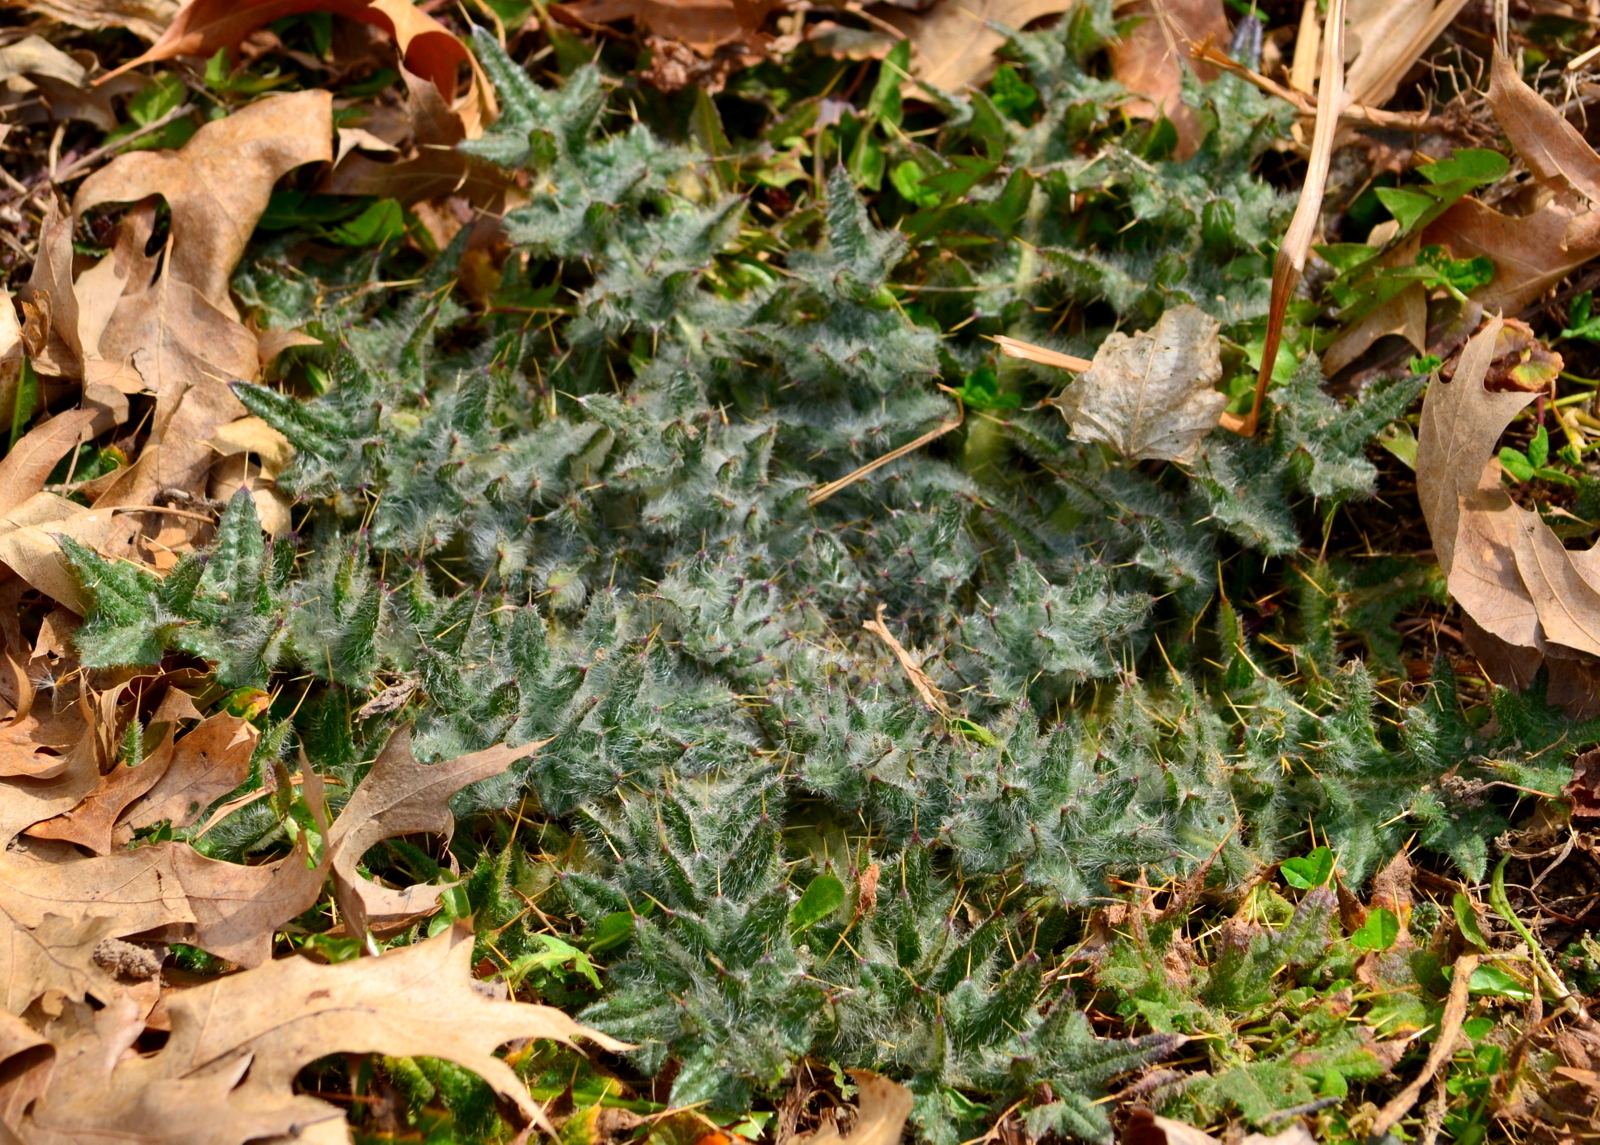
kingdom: Plantae
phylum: Tracheophyta
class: Magnoliopsida
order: Asterales
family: Asteraceae
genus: Cirsium
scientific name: Cirsium vulgare
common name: Bull thistle
